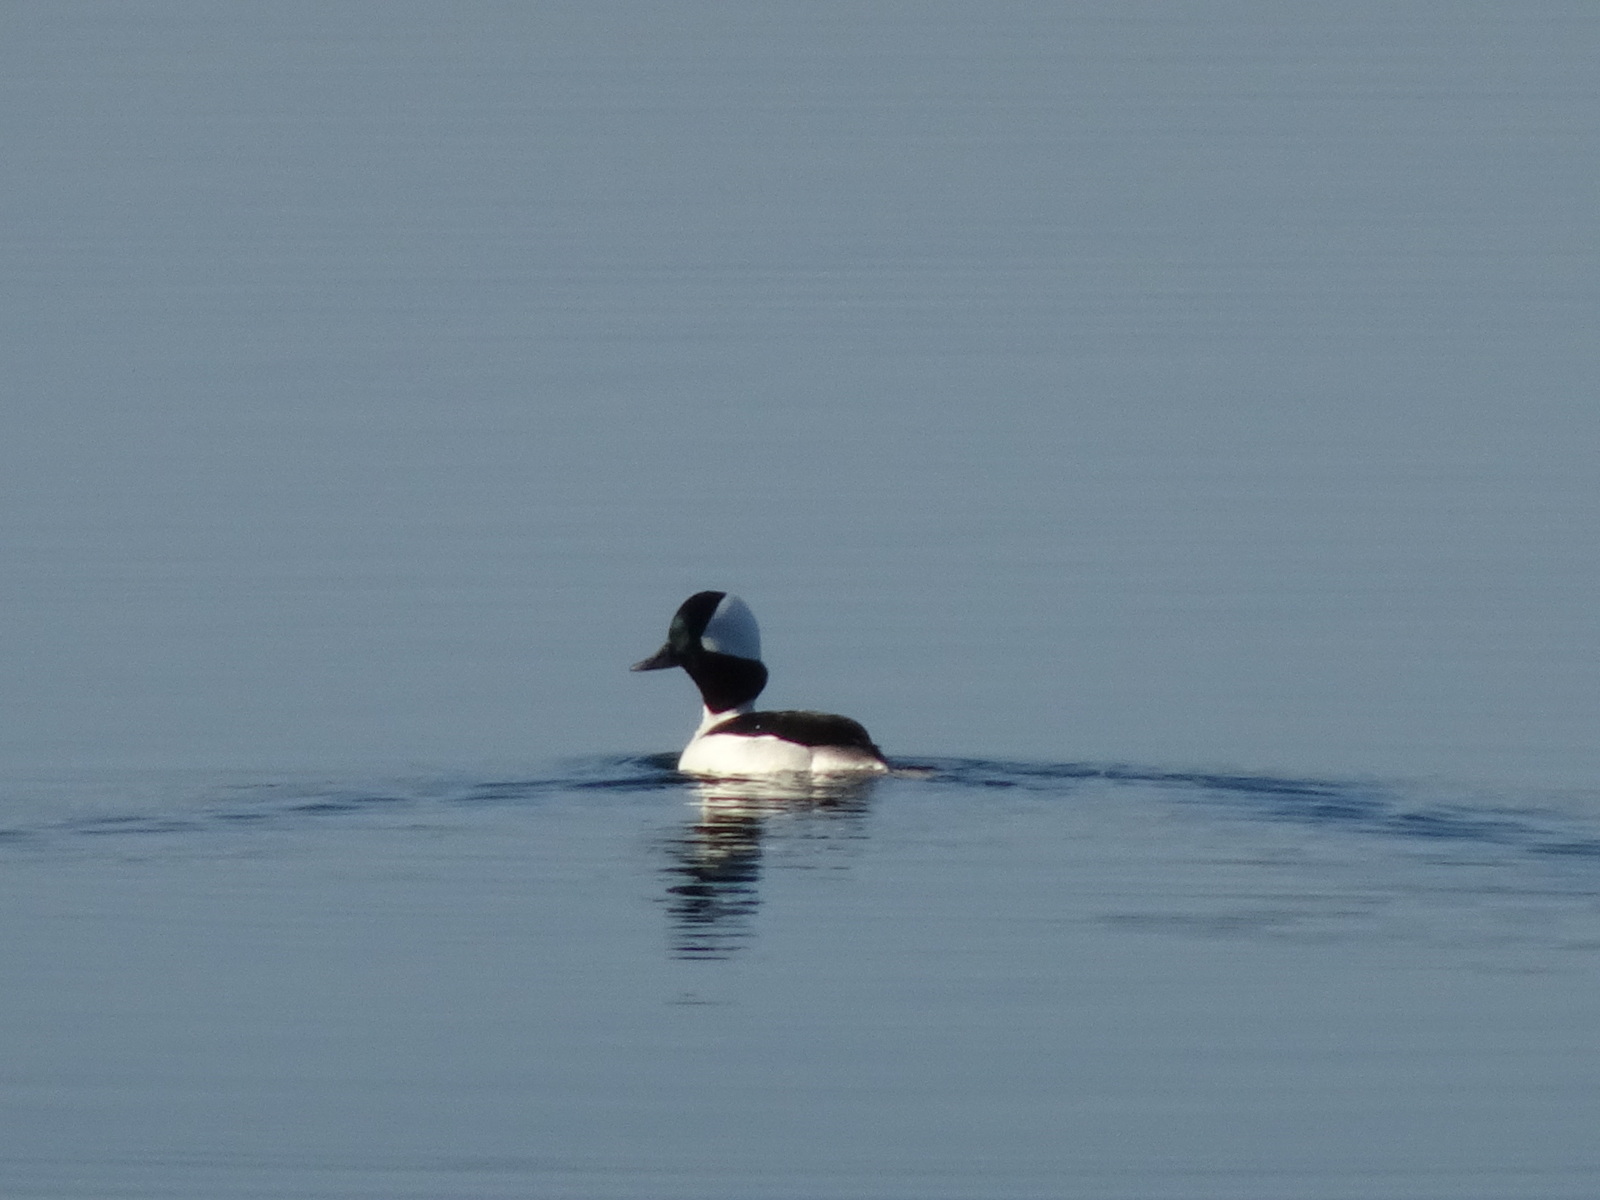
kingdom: Animalia
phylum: Chordata
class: Aves
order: Anseriformes
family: Anatidae
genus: Bucephala
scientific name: Bucephala albeola
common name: Bufflehead
